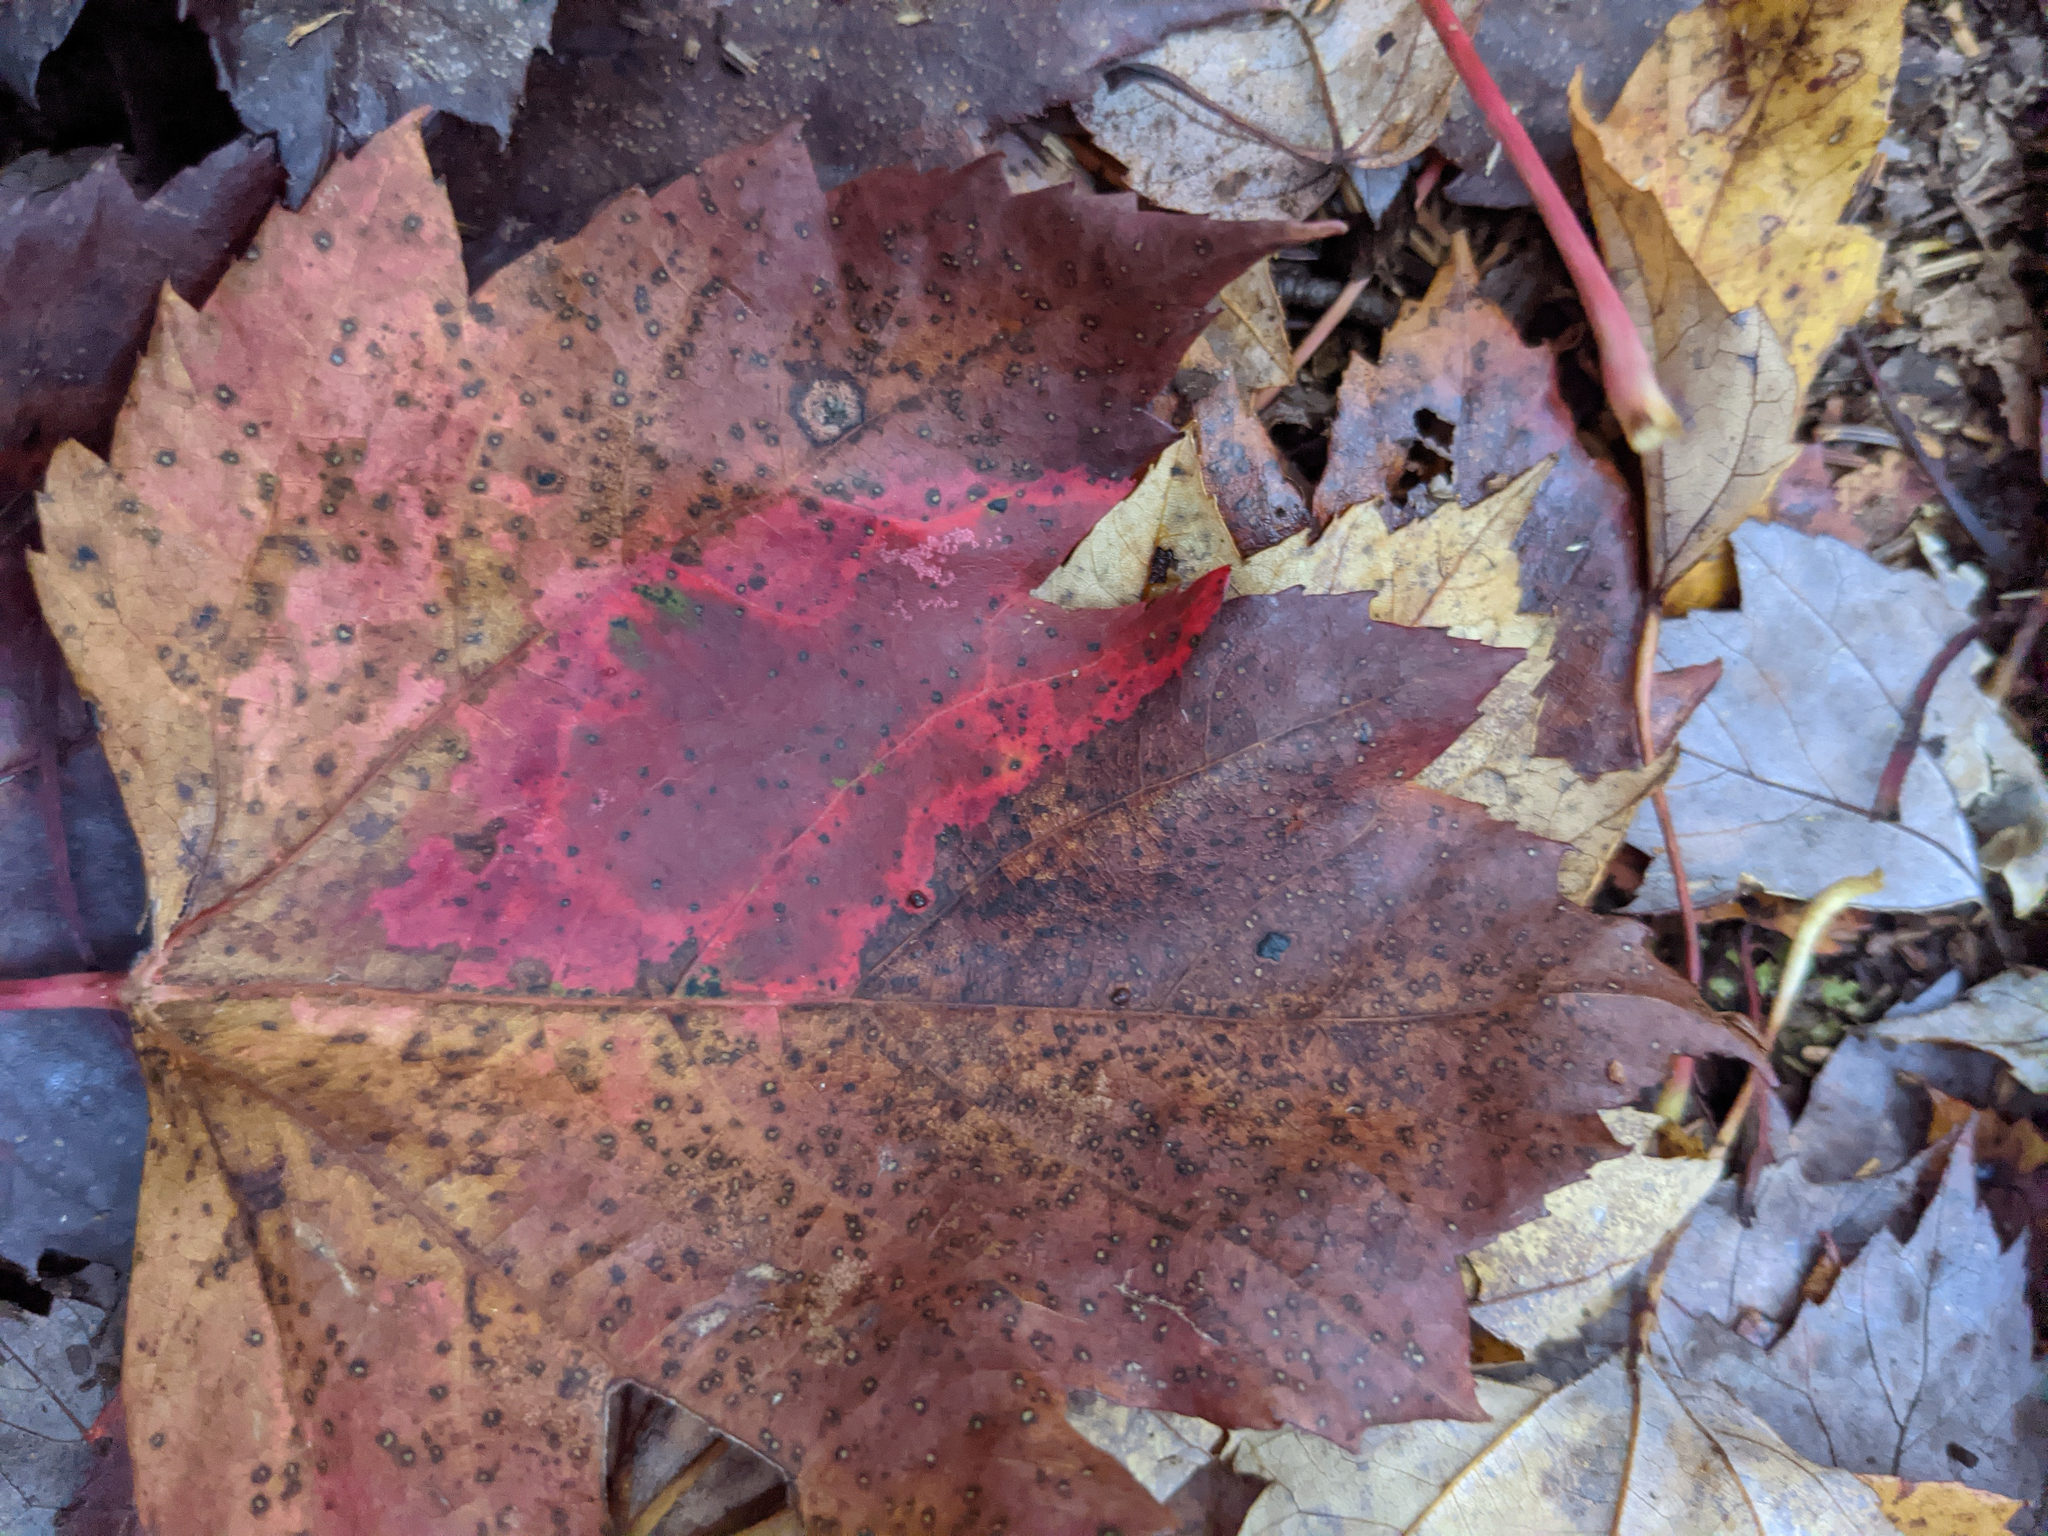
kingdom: Plantae
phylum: Tracheophyta
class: Magnoliopsida
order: Sapindales
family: Sapindaceae
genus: Acer
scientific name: Acer rubrum
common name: Red maple
